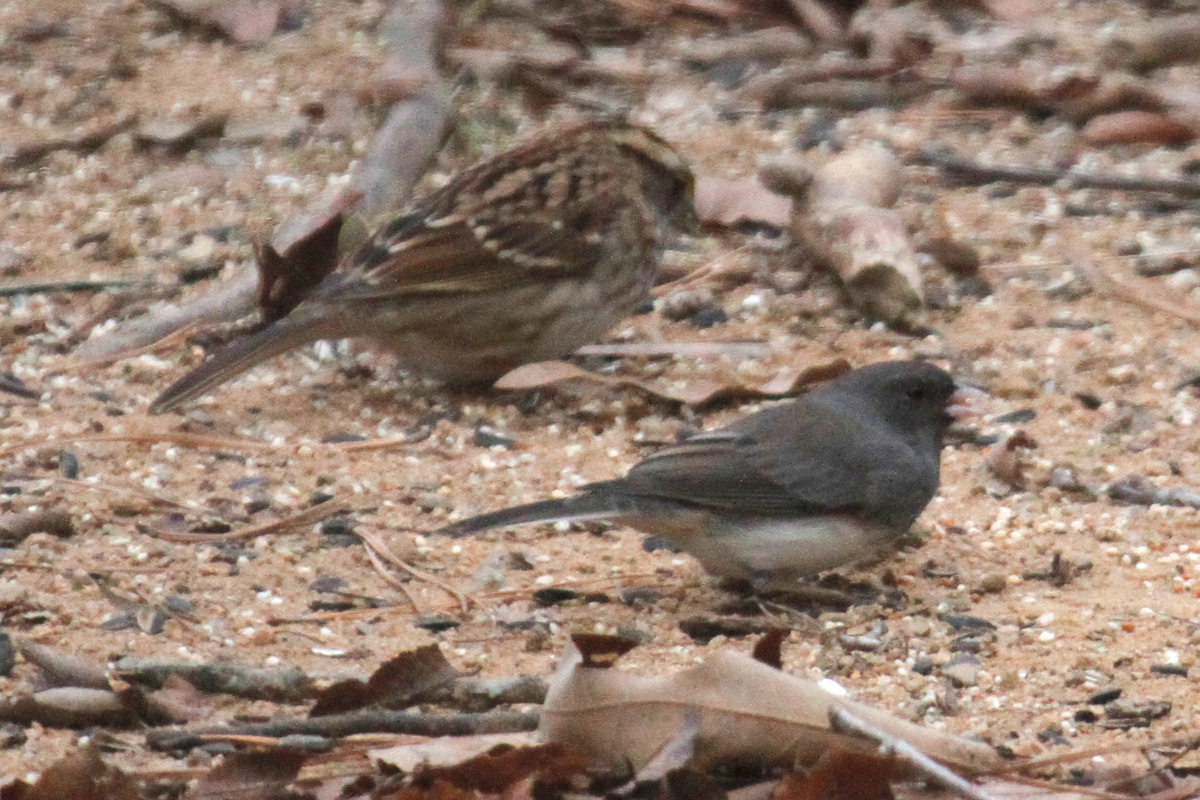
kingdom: Animalia
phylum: Chordata
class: Aves
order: Passeriformes
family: Passerellidae
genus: Junco
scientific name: Junco hyemalis
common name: Dark-eyed junco
